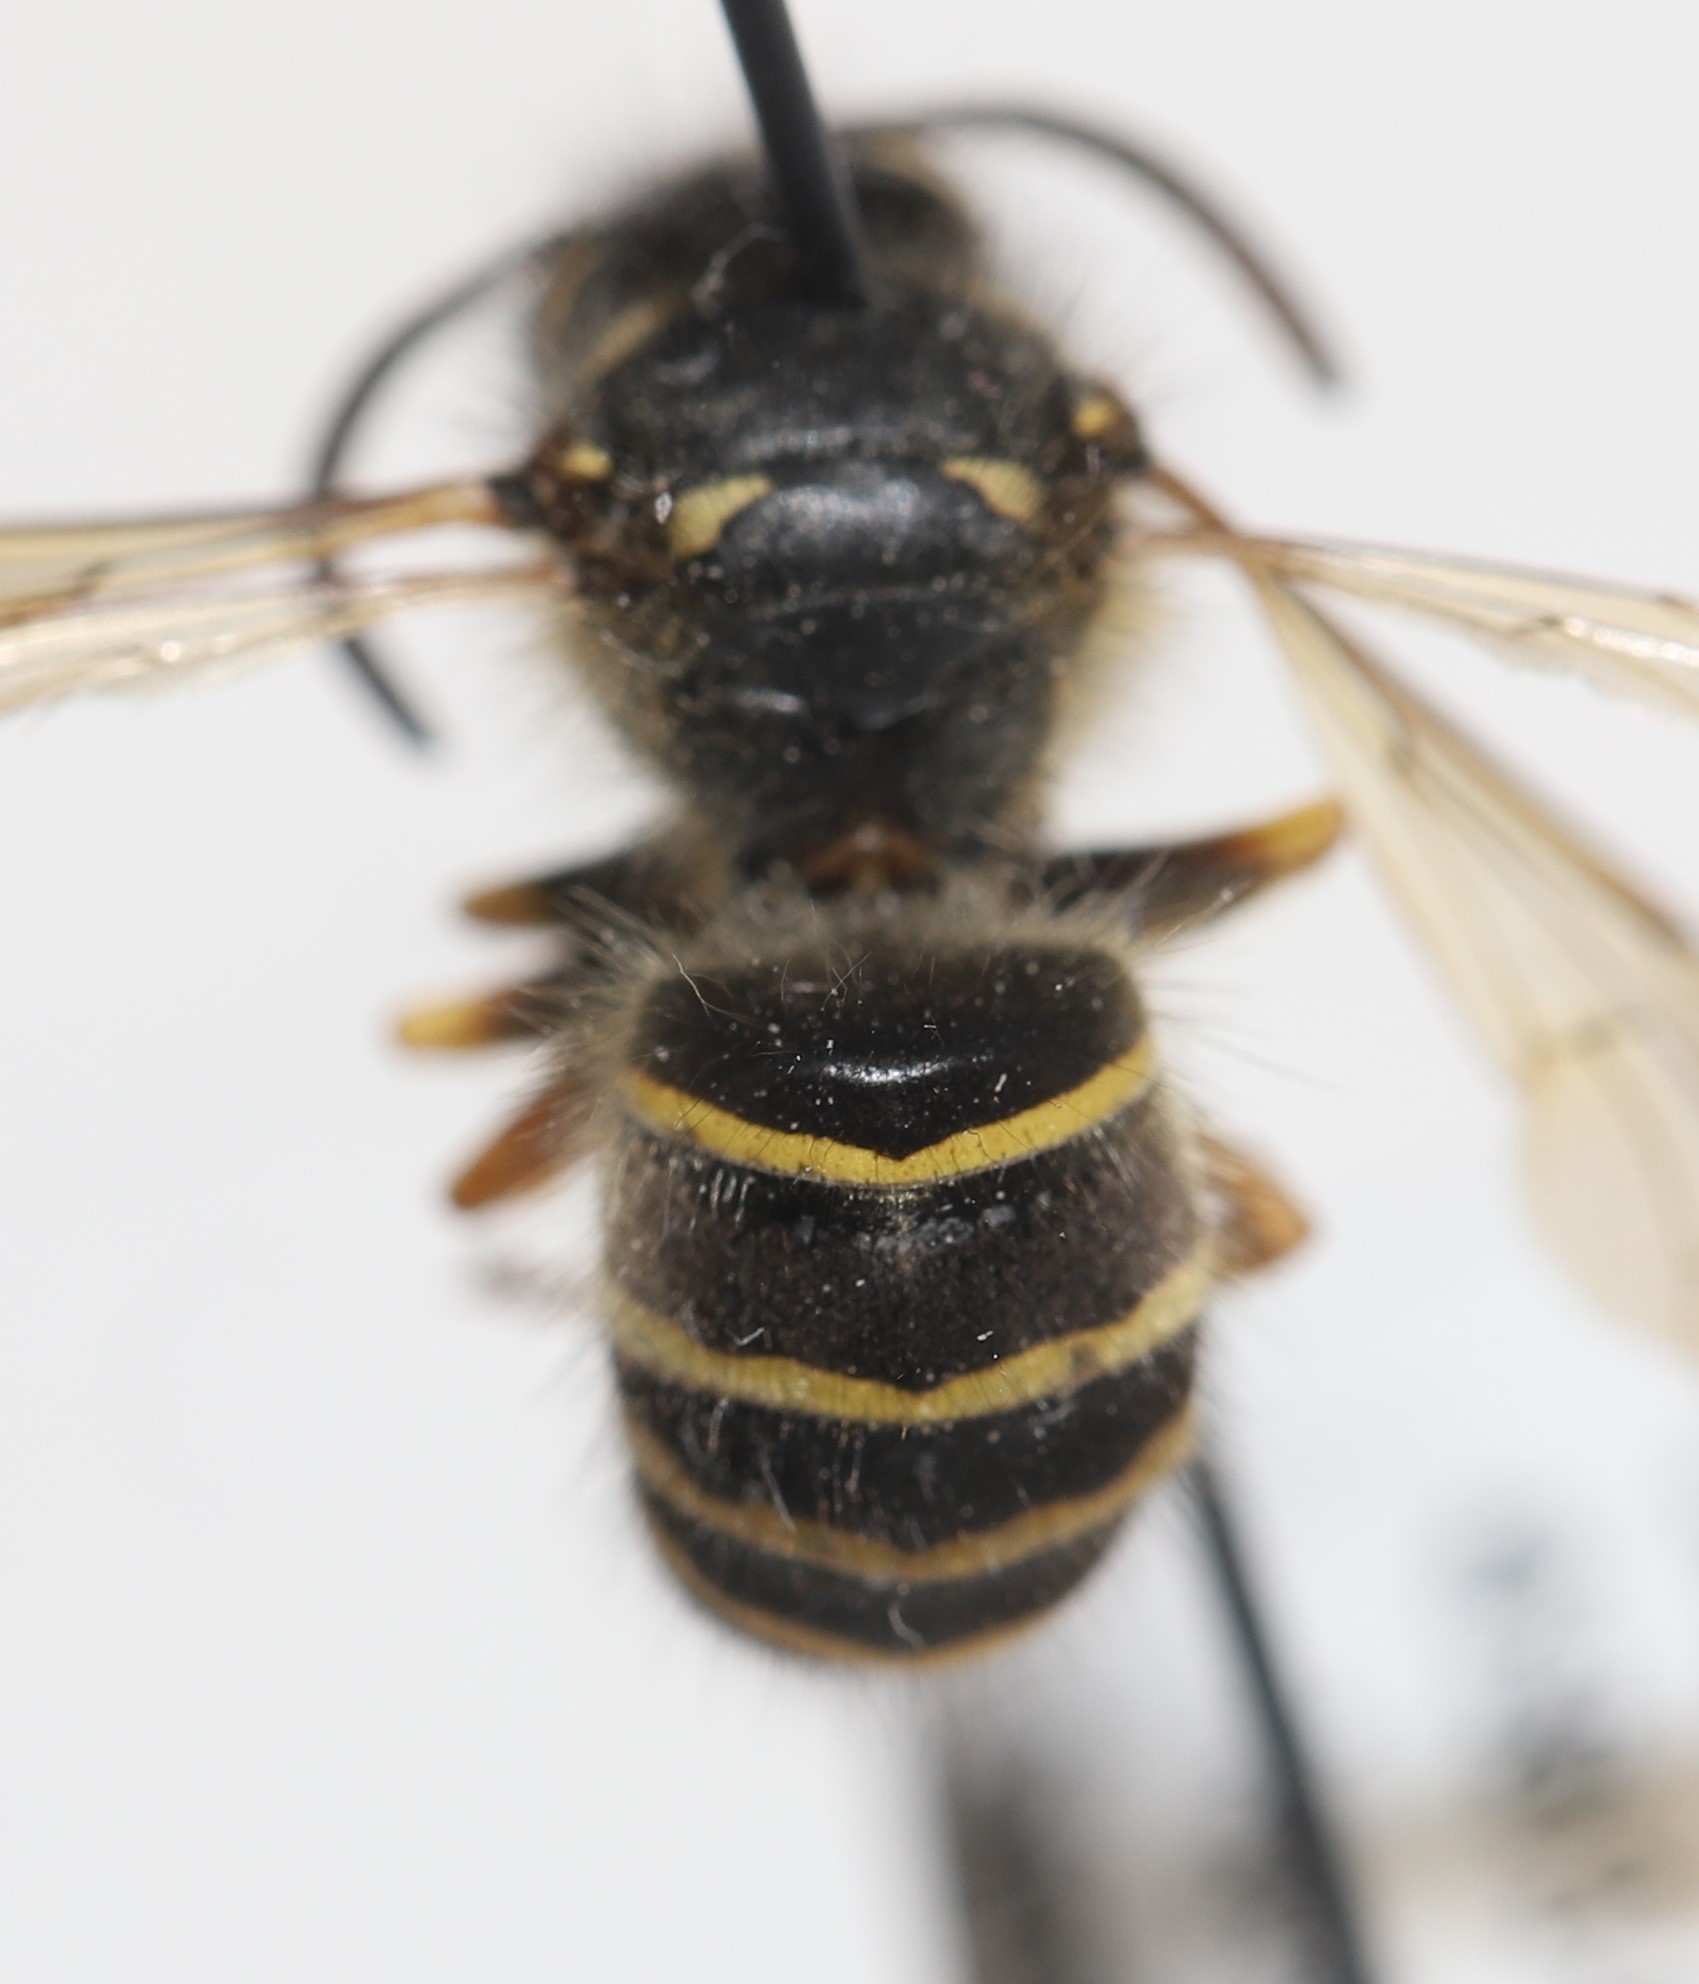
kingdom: Animalia
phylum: Arthropoda
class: Insecta
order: Hymenoptera
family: Vespidae
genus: Dolichovespula
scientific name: Dolichovespula norvegicoides
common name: Northern aerial yellowjacket
